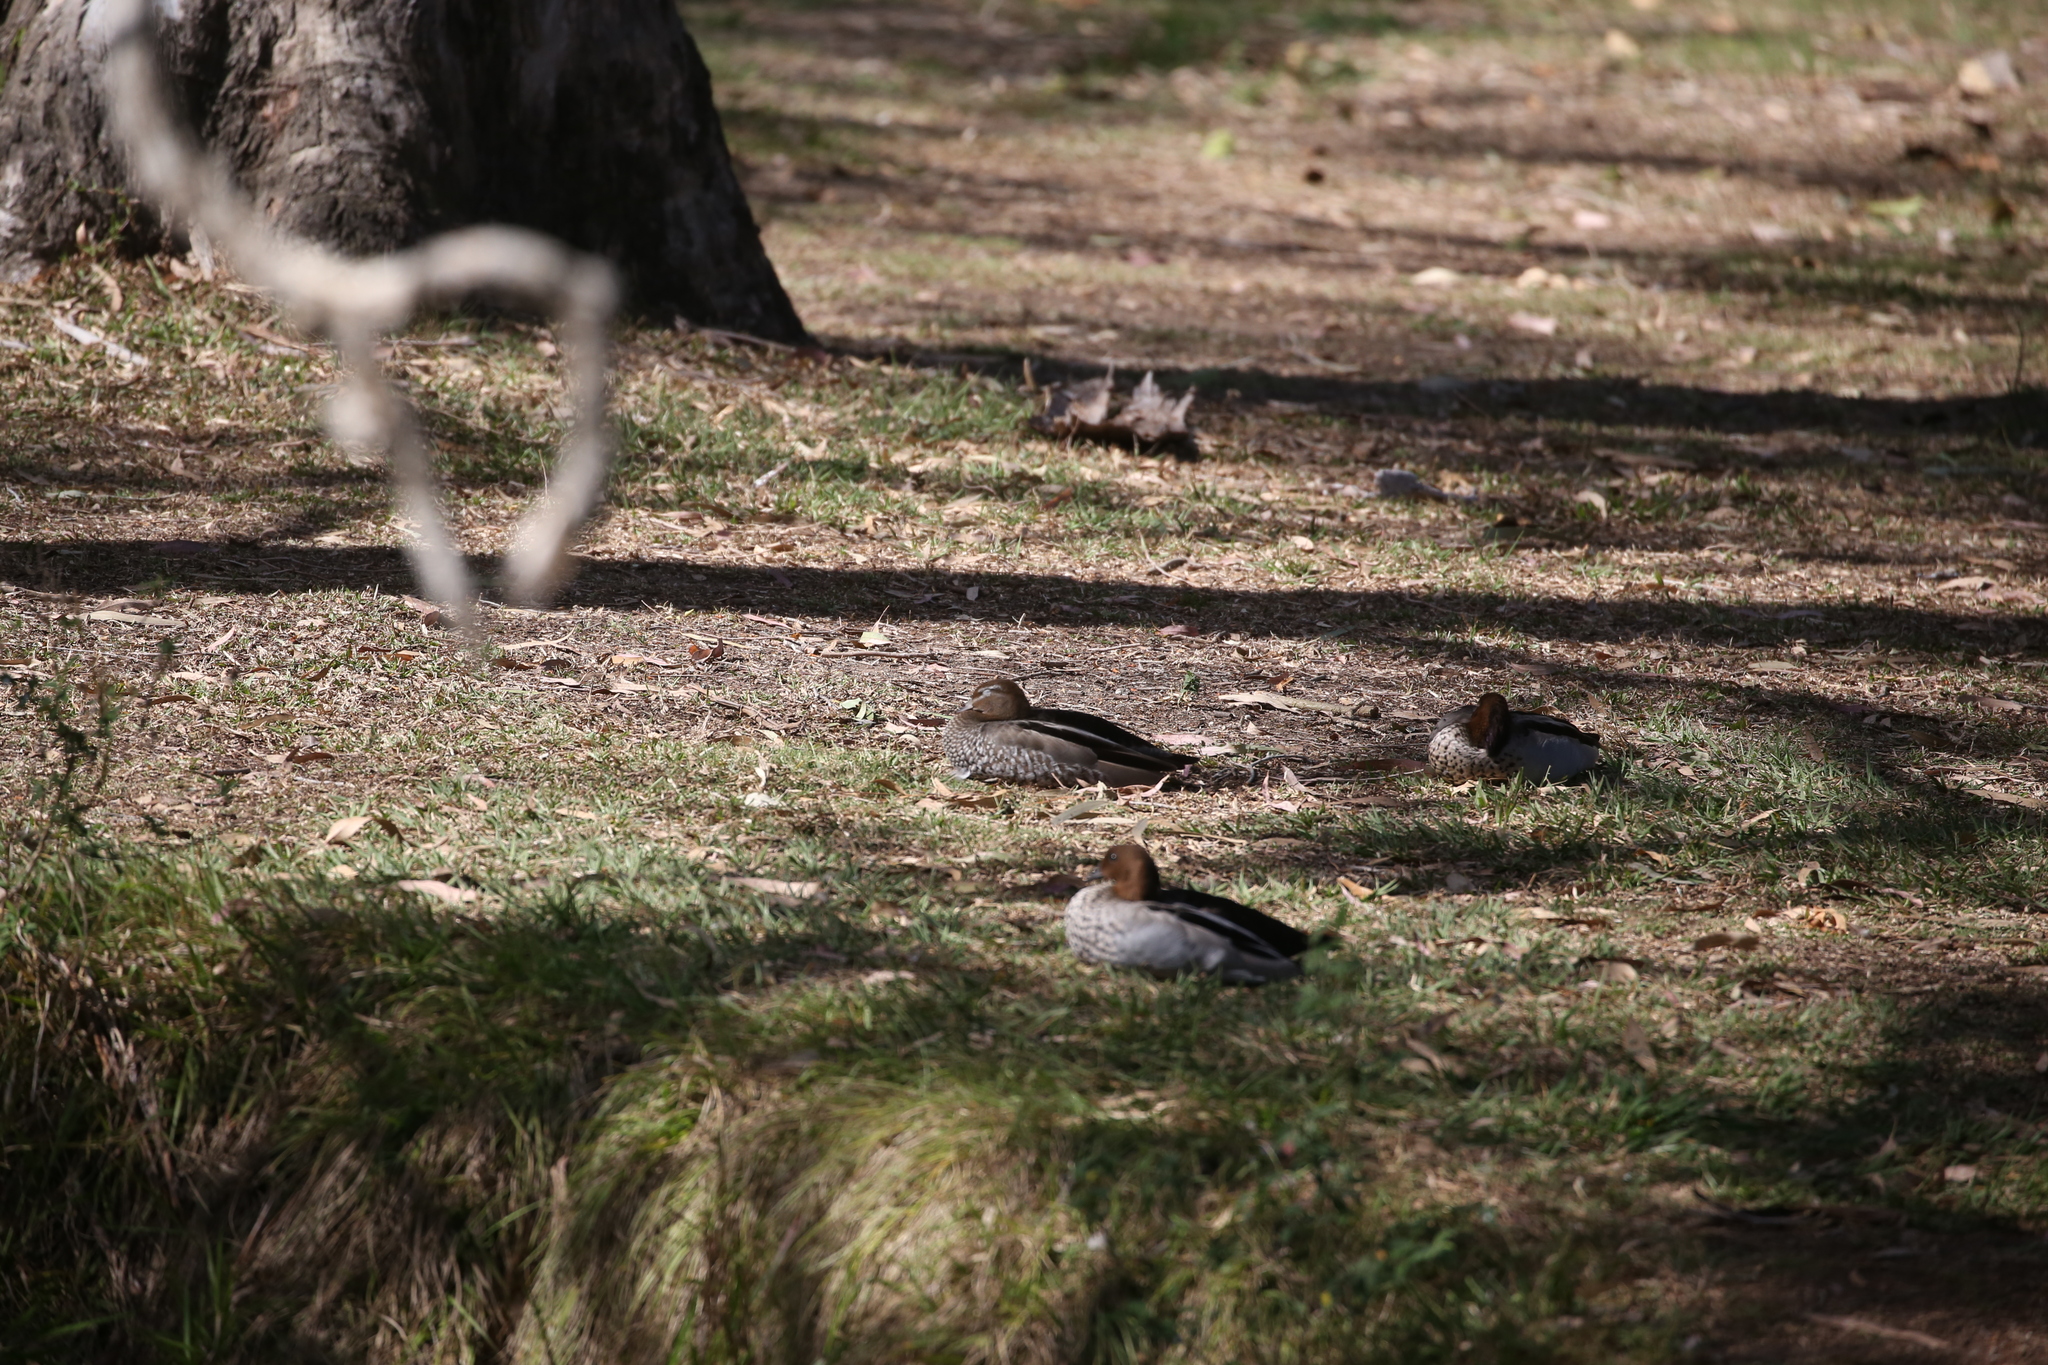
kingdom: Animalia
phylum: Chordata
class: Aves
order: Anseriformes
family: Anatidae
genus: Chenonetta
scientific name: Chenonetta jubata
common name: Maned duck
